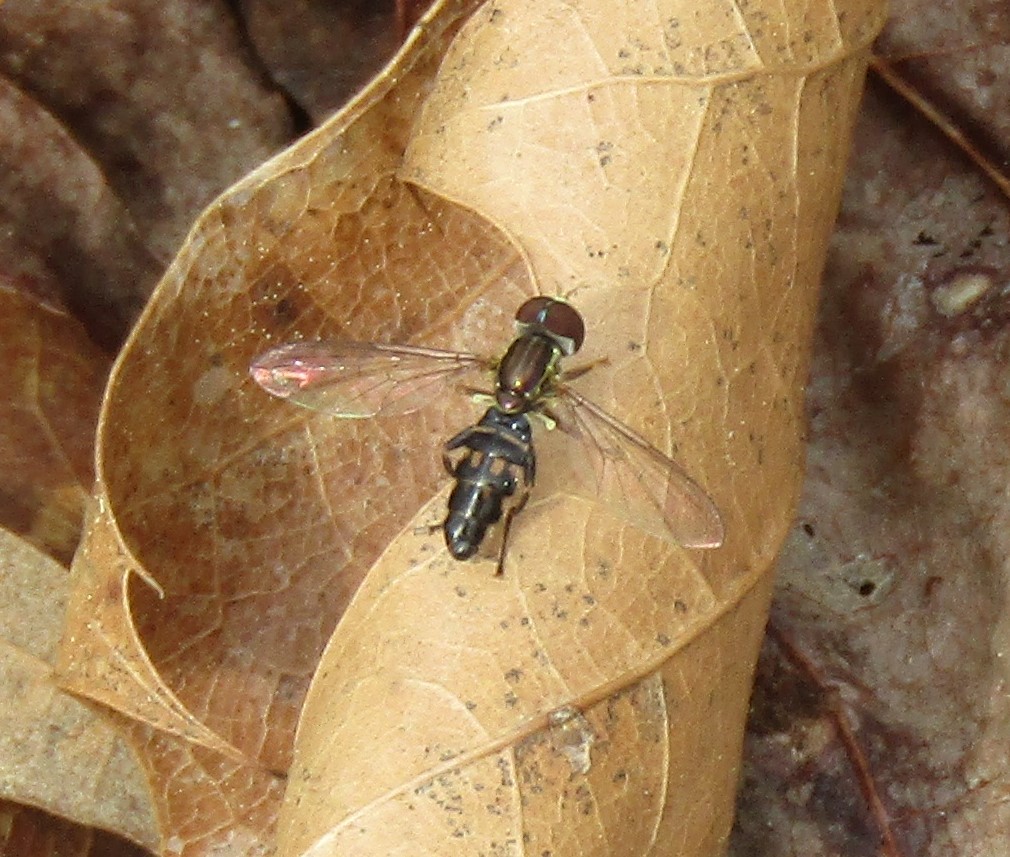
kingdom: Animalia
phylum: Arthropoda
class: Insecta
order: Diptera
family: Syrphidae
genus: Toxomerus
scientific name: Toxomerus geminatus
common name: Eastern calligrapher
